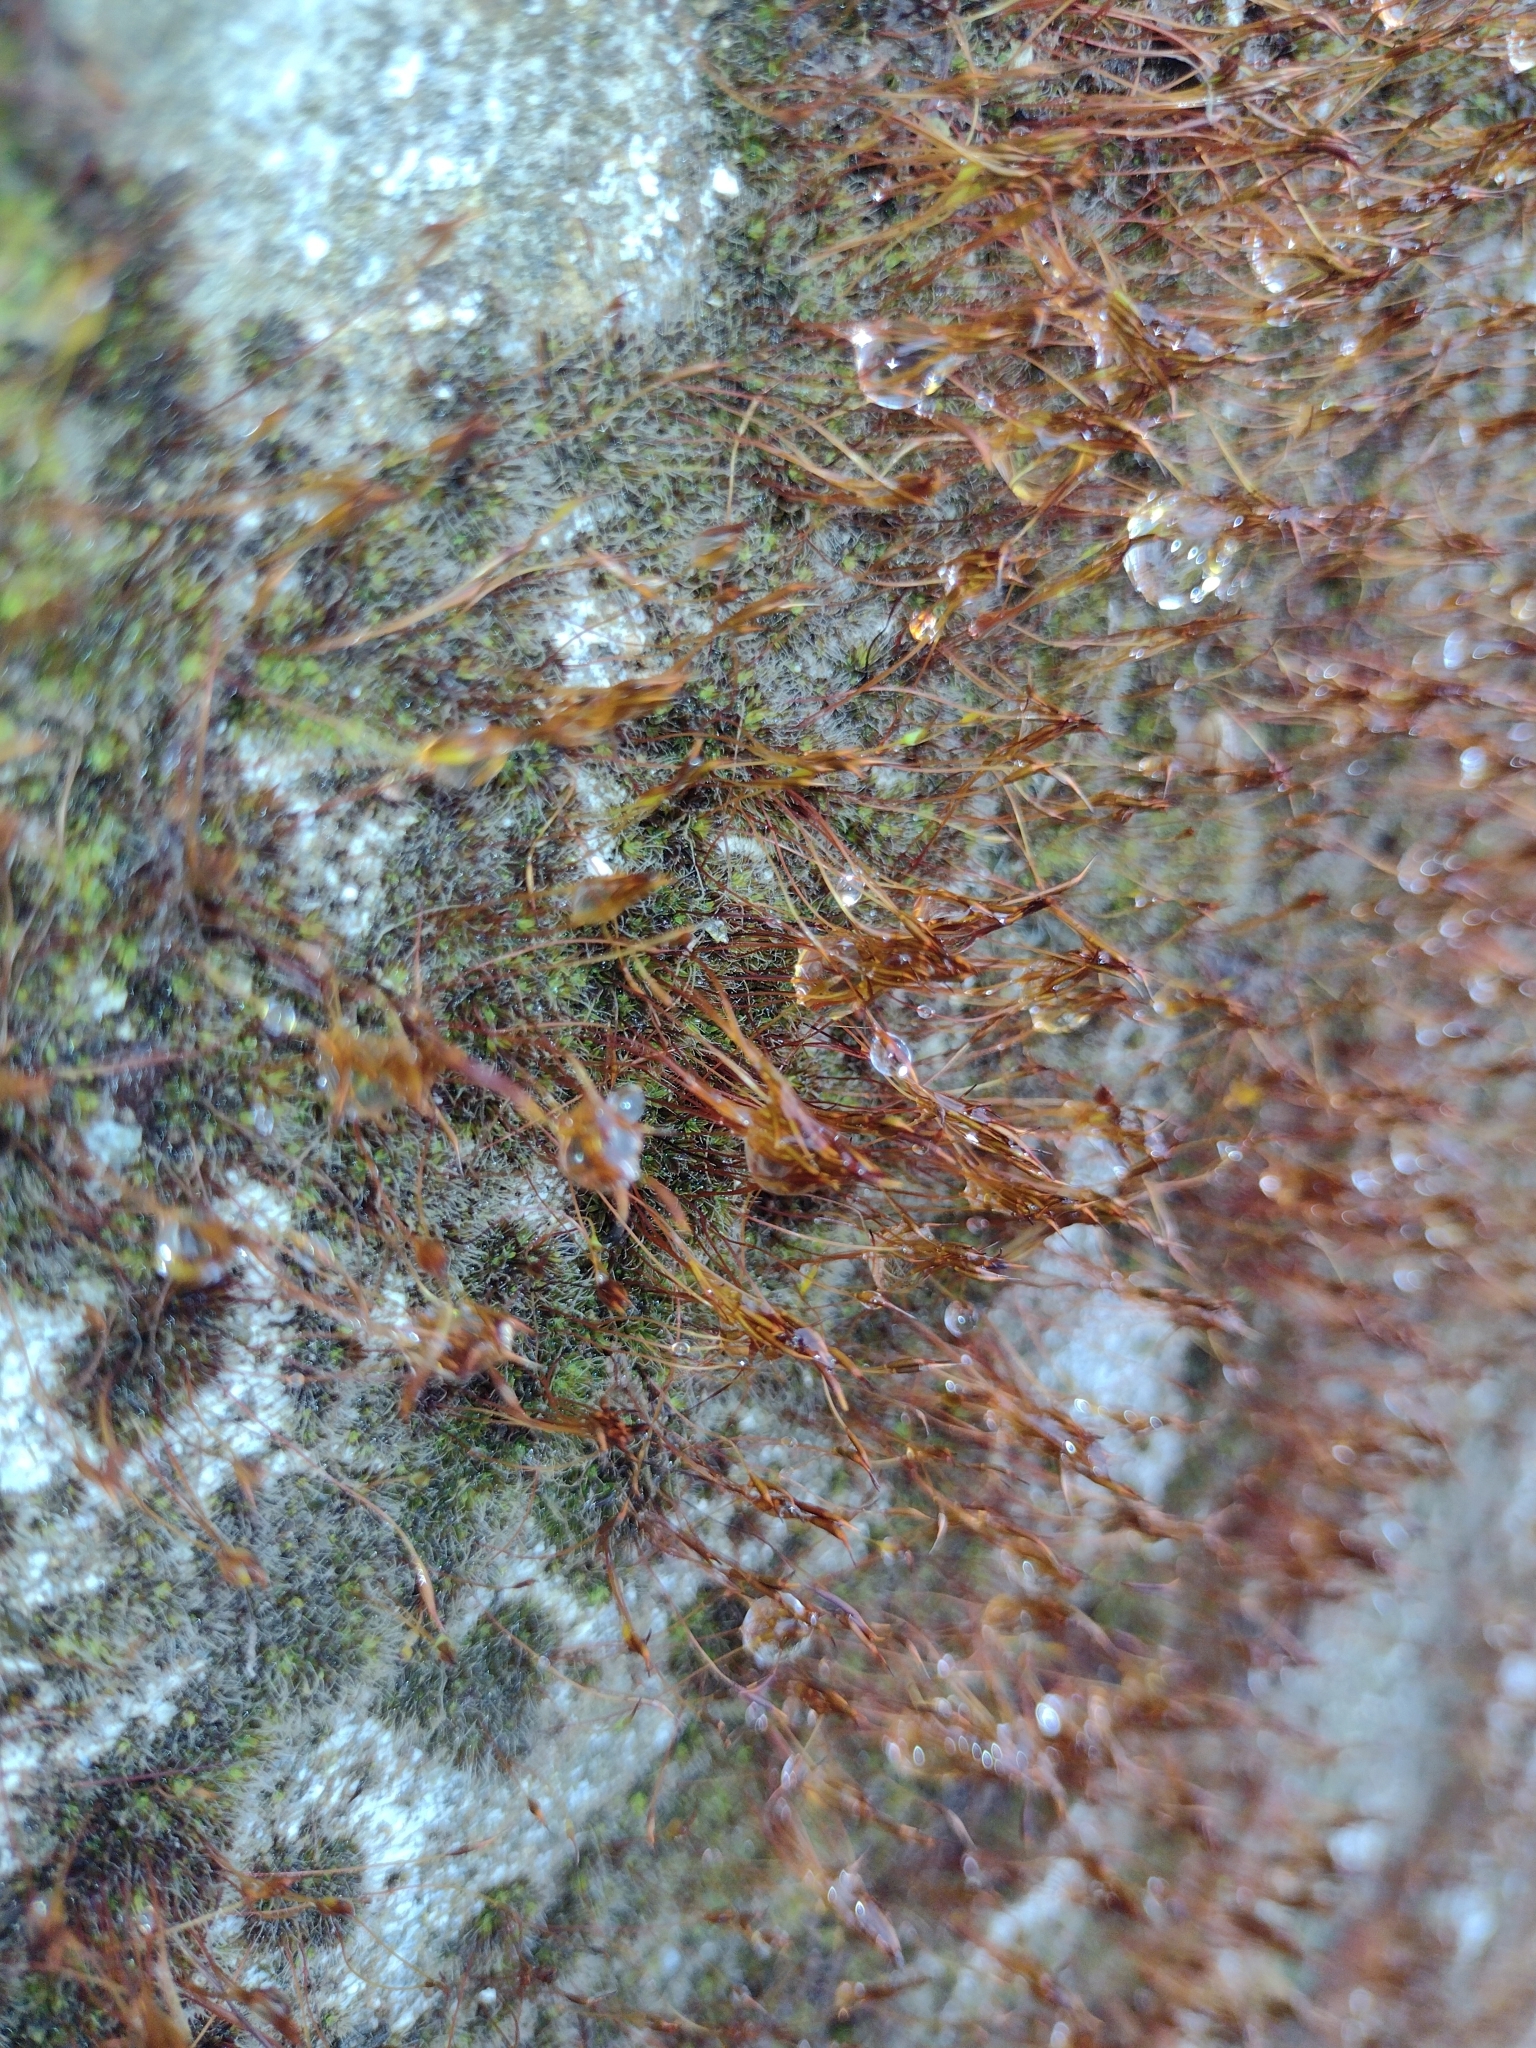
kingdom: Plantae
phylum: Bryophyta
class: Bryopsida
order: Pottiales
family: Pottiaceae
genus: Tortula
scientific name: Tortula muralis
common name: Wall screw-moss
